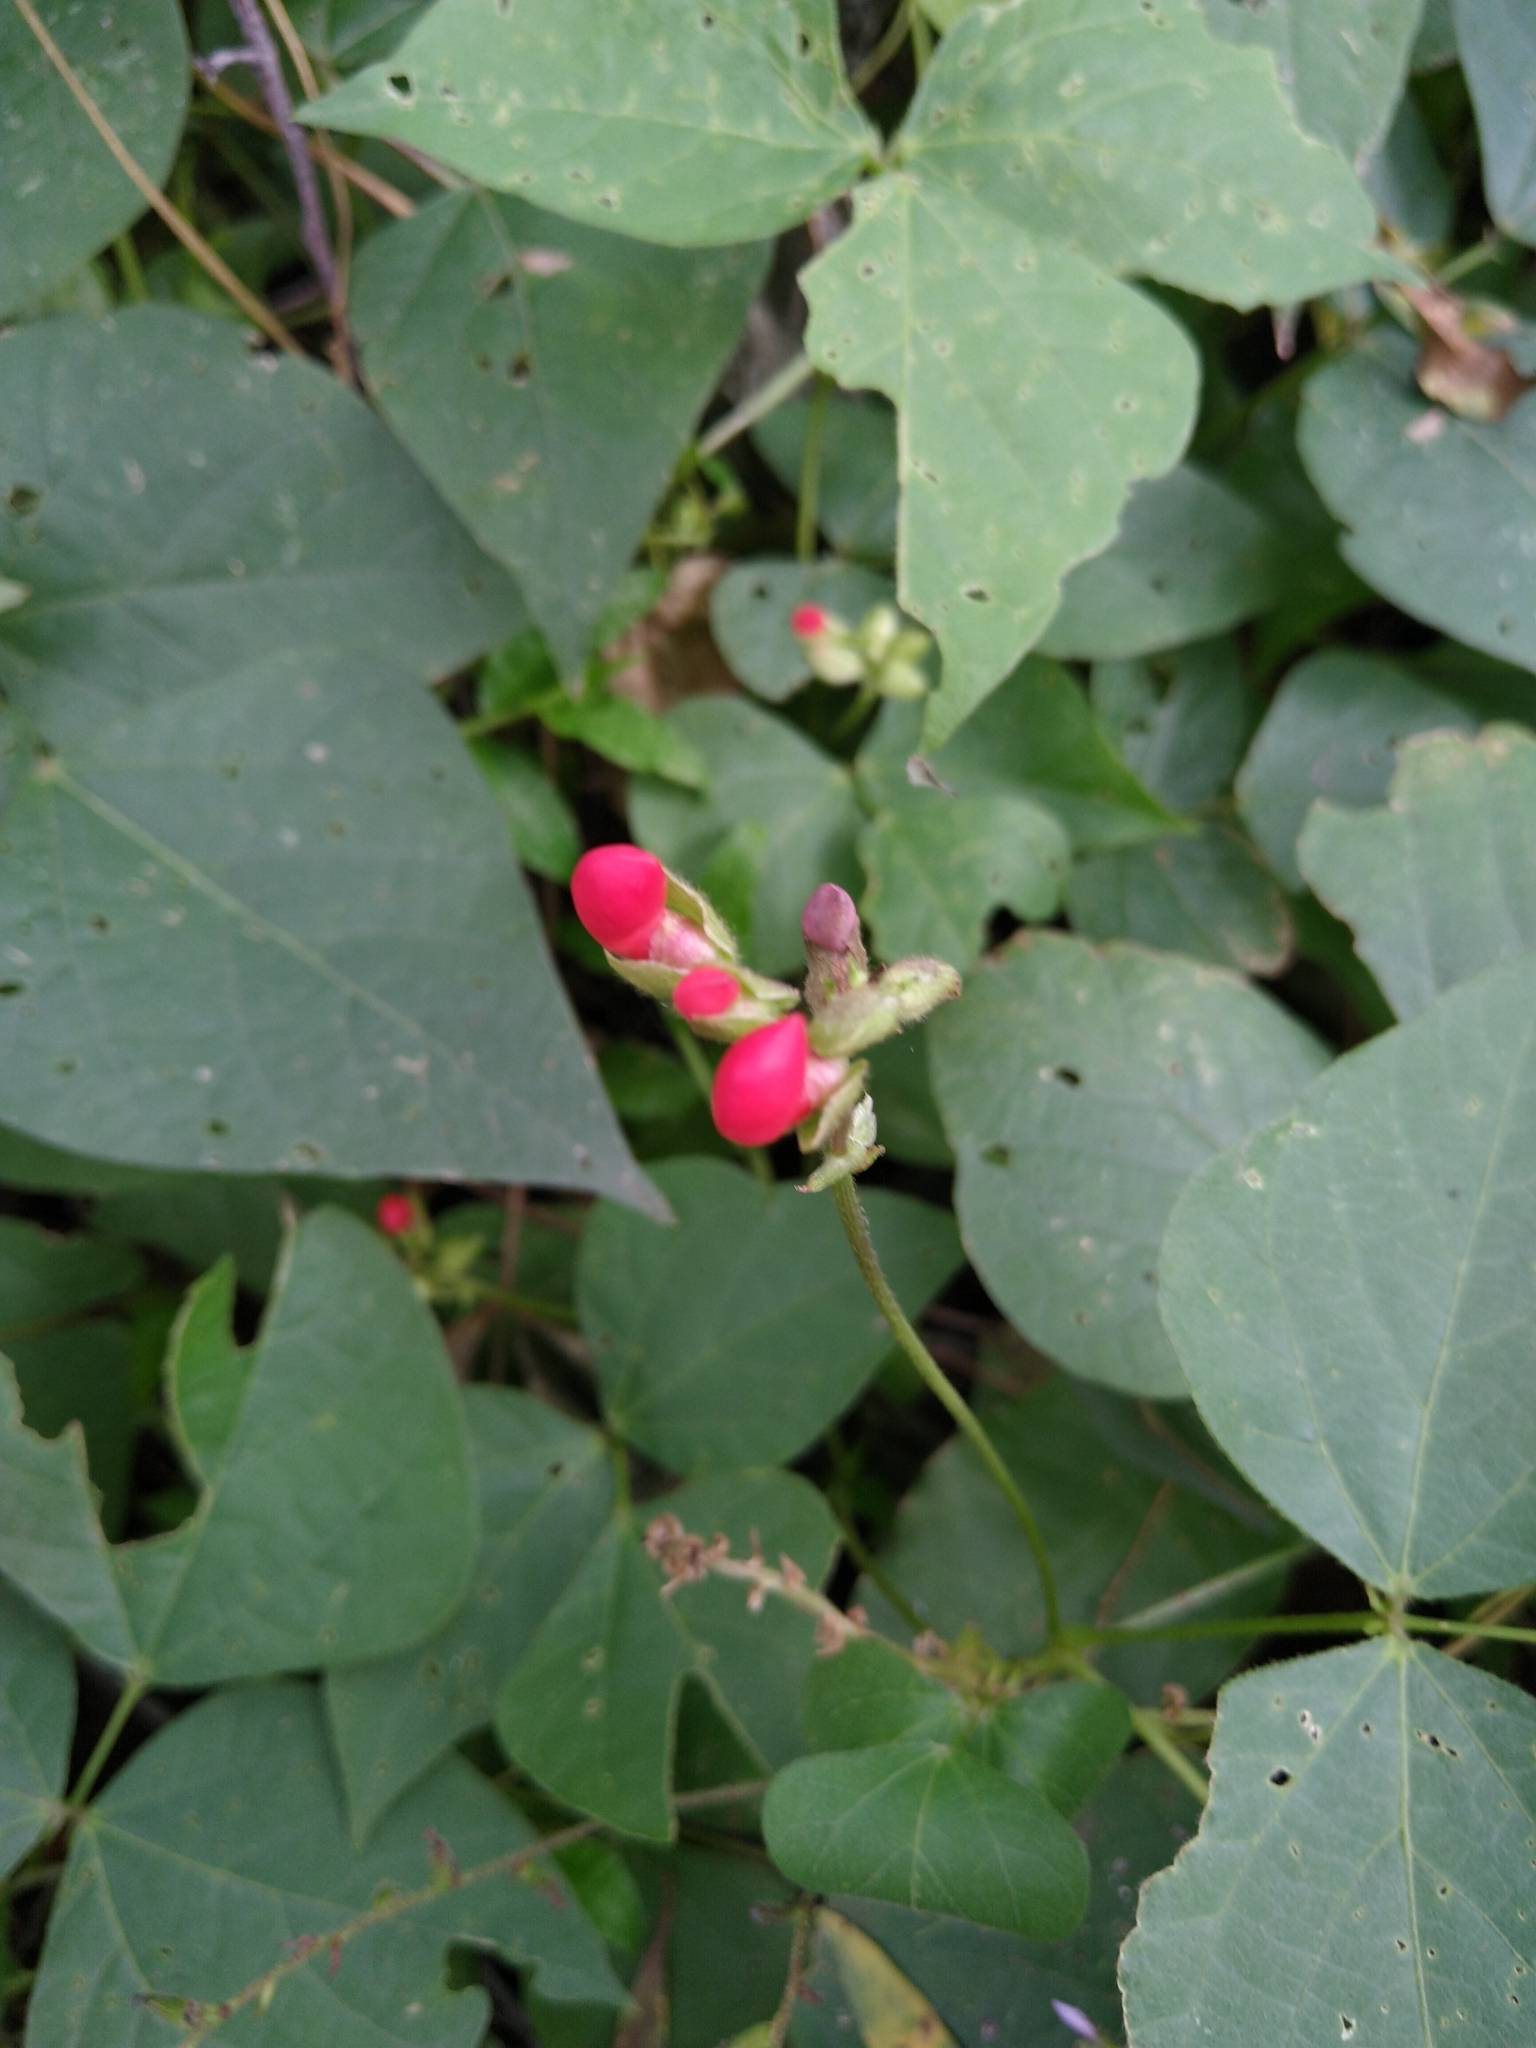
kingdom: Plantae
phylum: Tracheophyta
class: Magnoliopsida
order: Fabales
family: Fabaceae
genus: Phaseolus
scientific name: Phaseolus coccineus
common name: Runner bean
